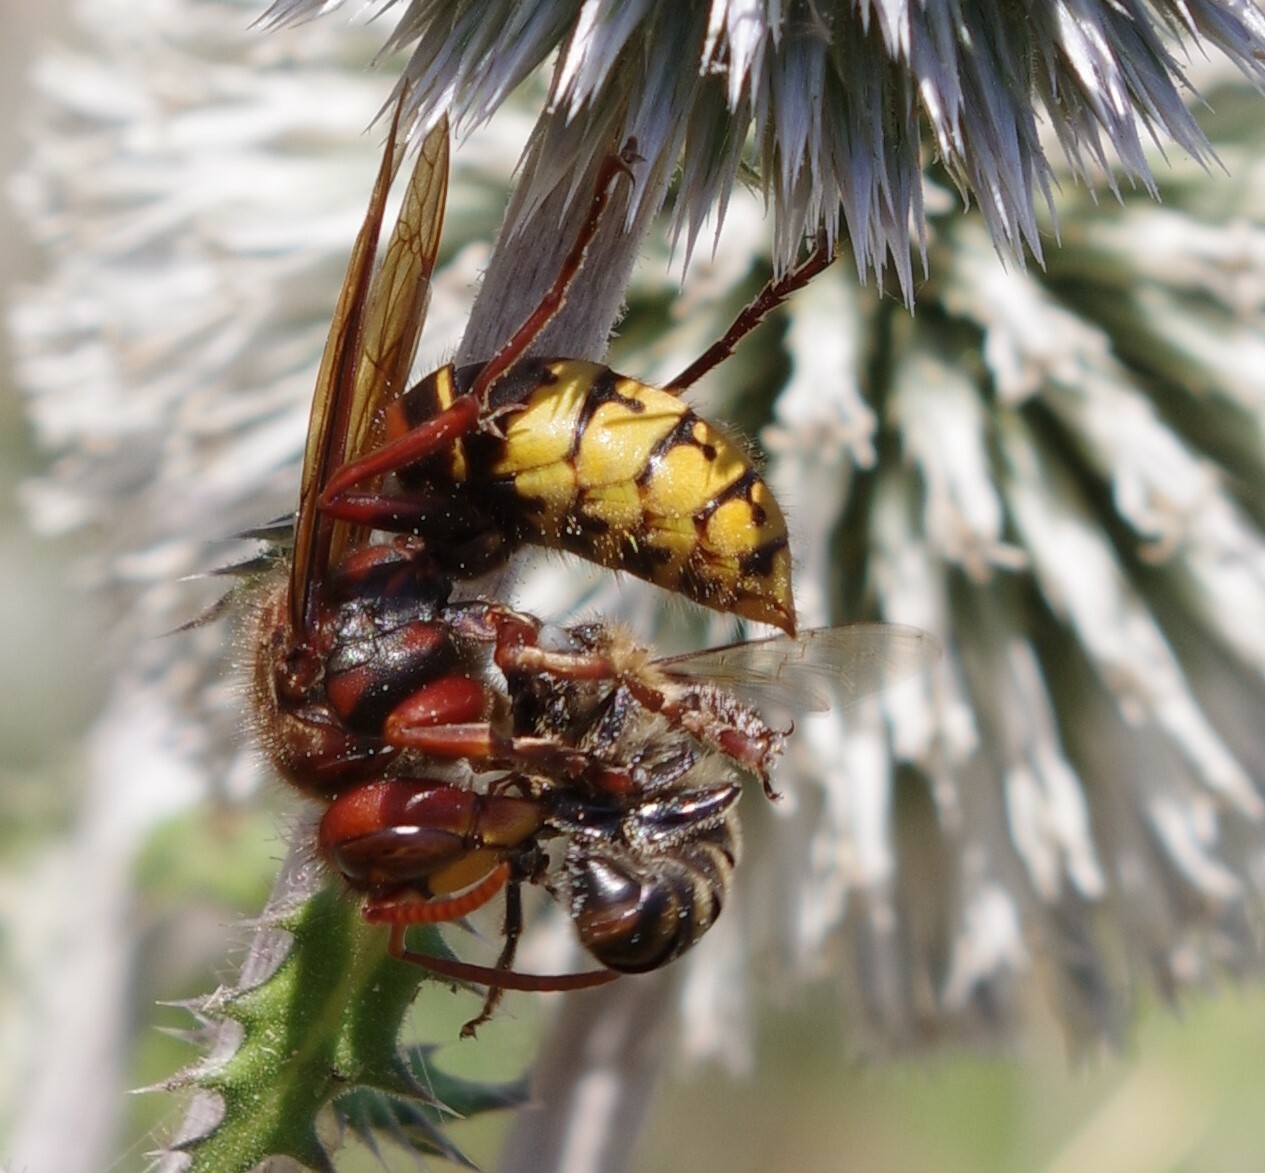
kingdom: Animalia
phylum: Arthropoda
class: Insecta
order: Hymenoptera
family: Vespidae
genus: Vespa
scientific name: Vespa crabro
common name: Hornet
